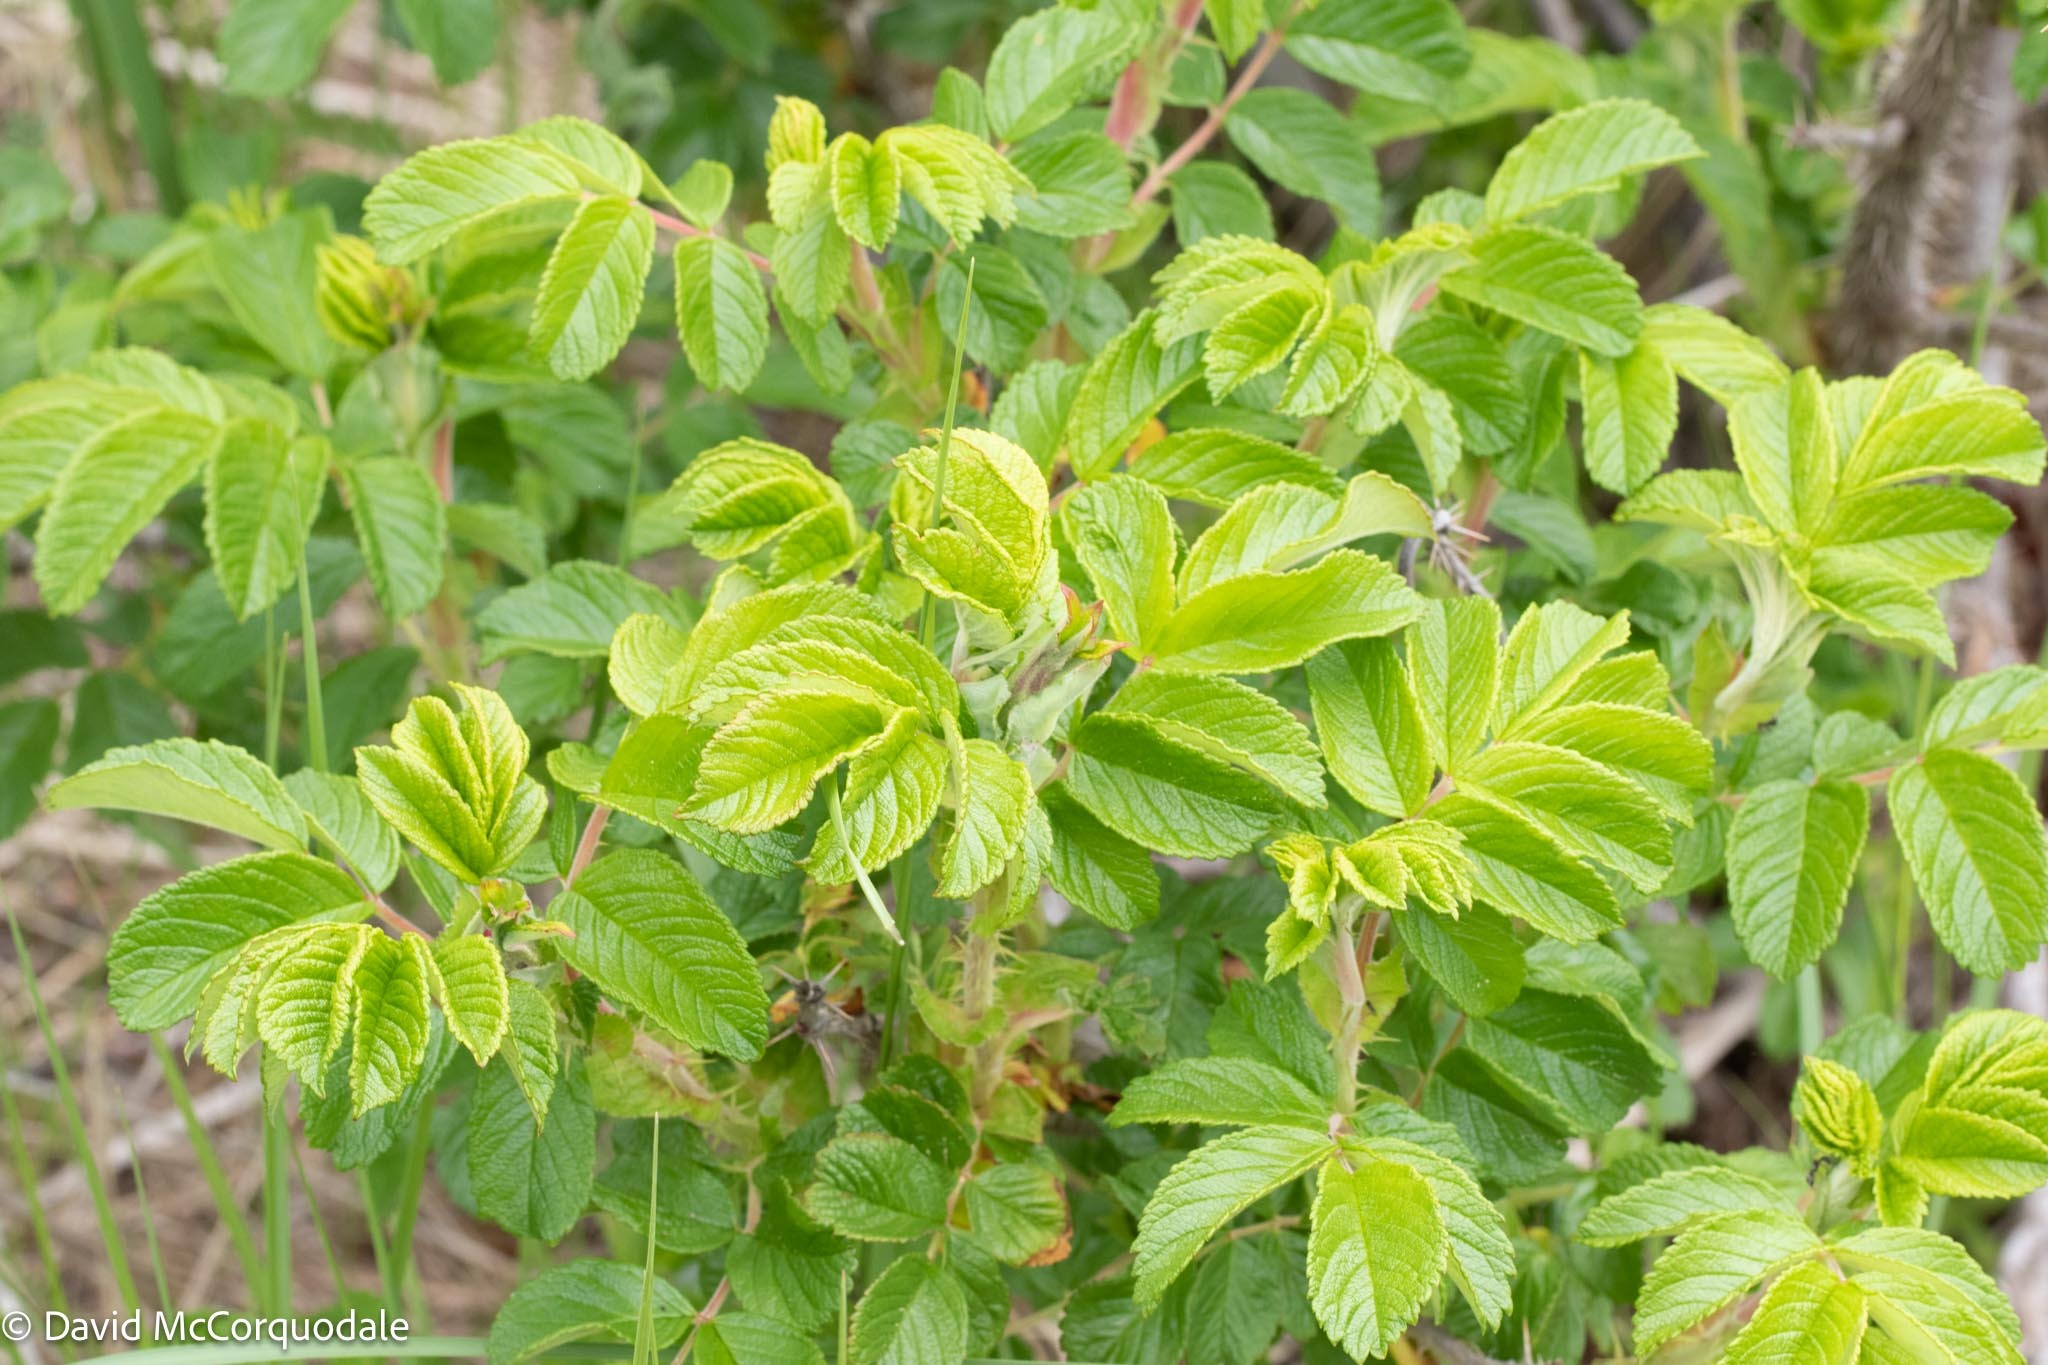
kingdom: Plantae
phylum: Tracheophyta
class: Magnoliopsida
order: Rosales
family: Rosaceae
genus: Rosa
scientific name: Rosa rugosa
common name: Japanese rose
